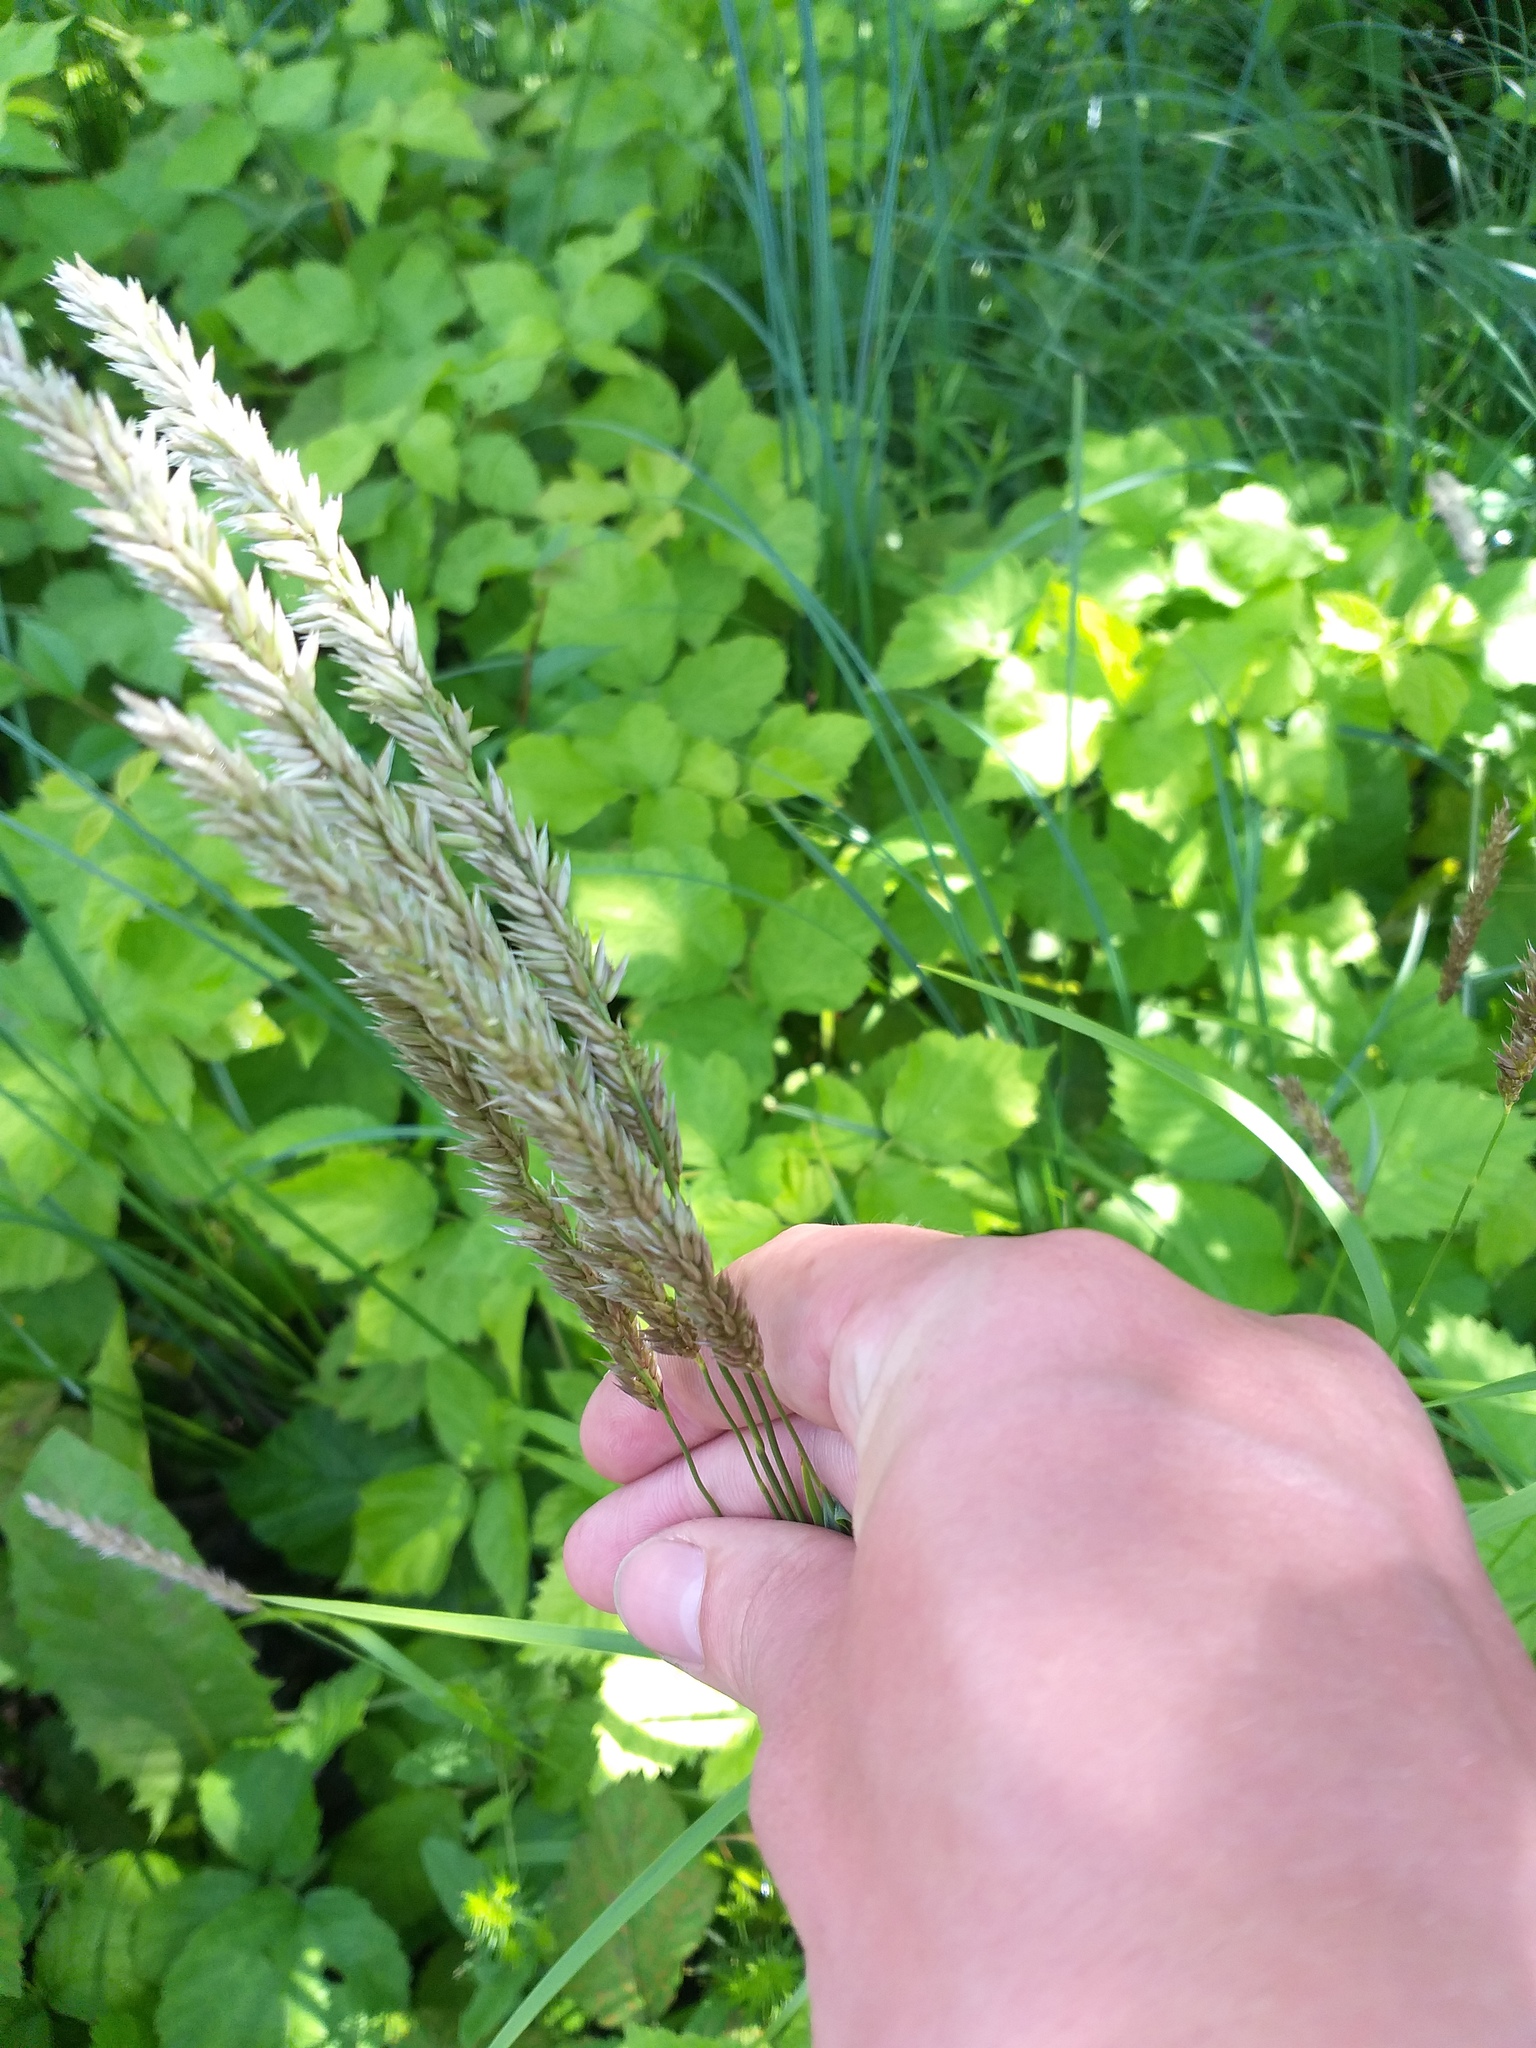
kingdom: Plantae
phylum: Tracheophyta
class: Liliopsida
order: Poales
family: Poaceae
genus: Melica
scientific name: Melica altissima
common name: Siberian melicgrass
